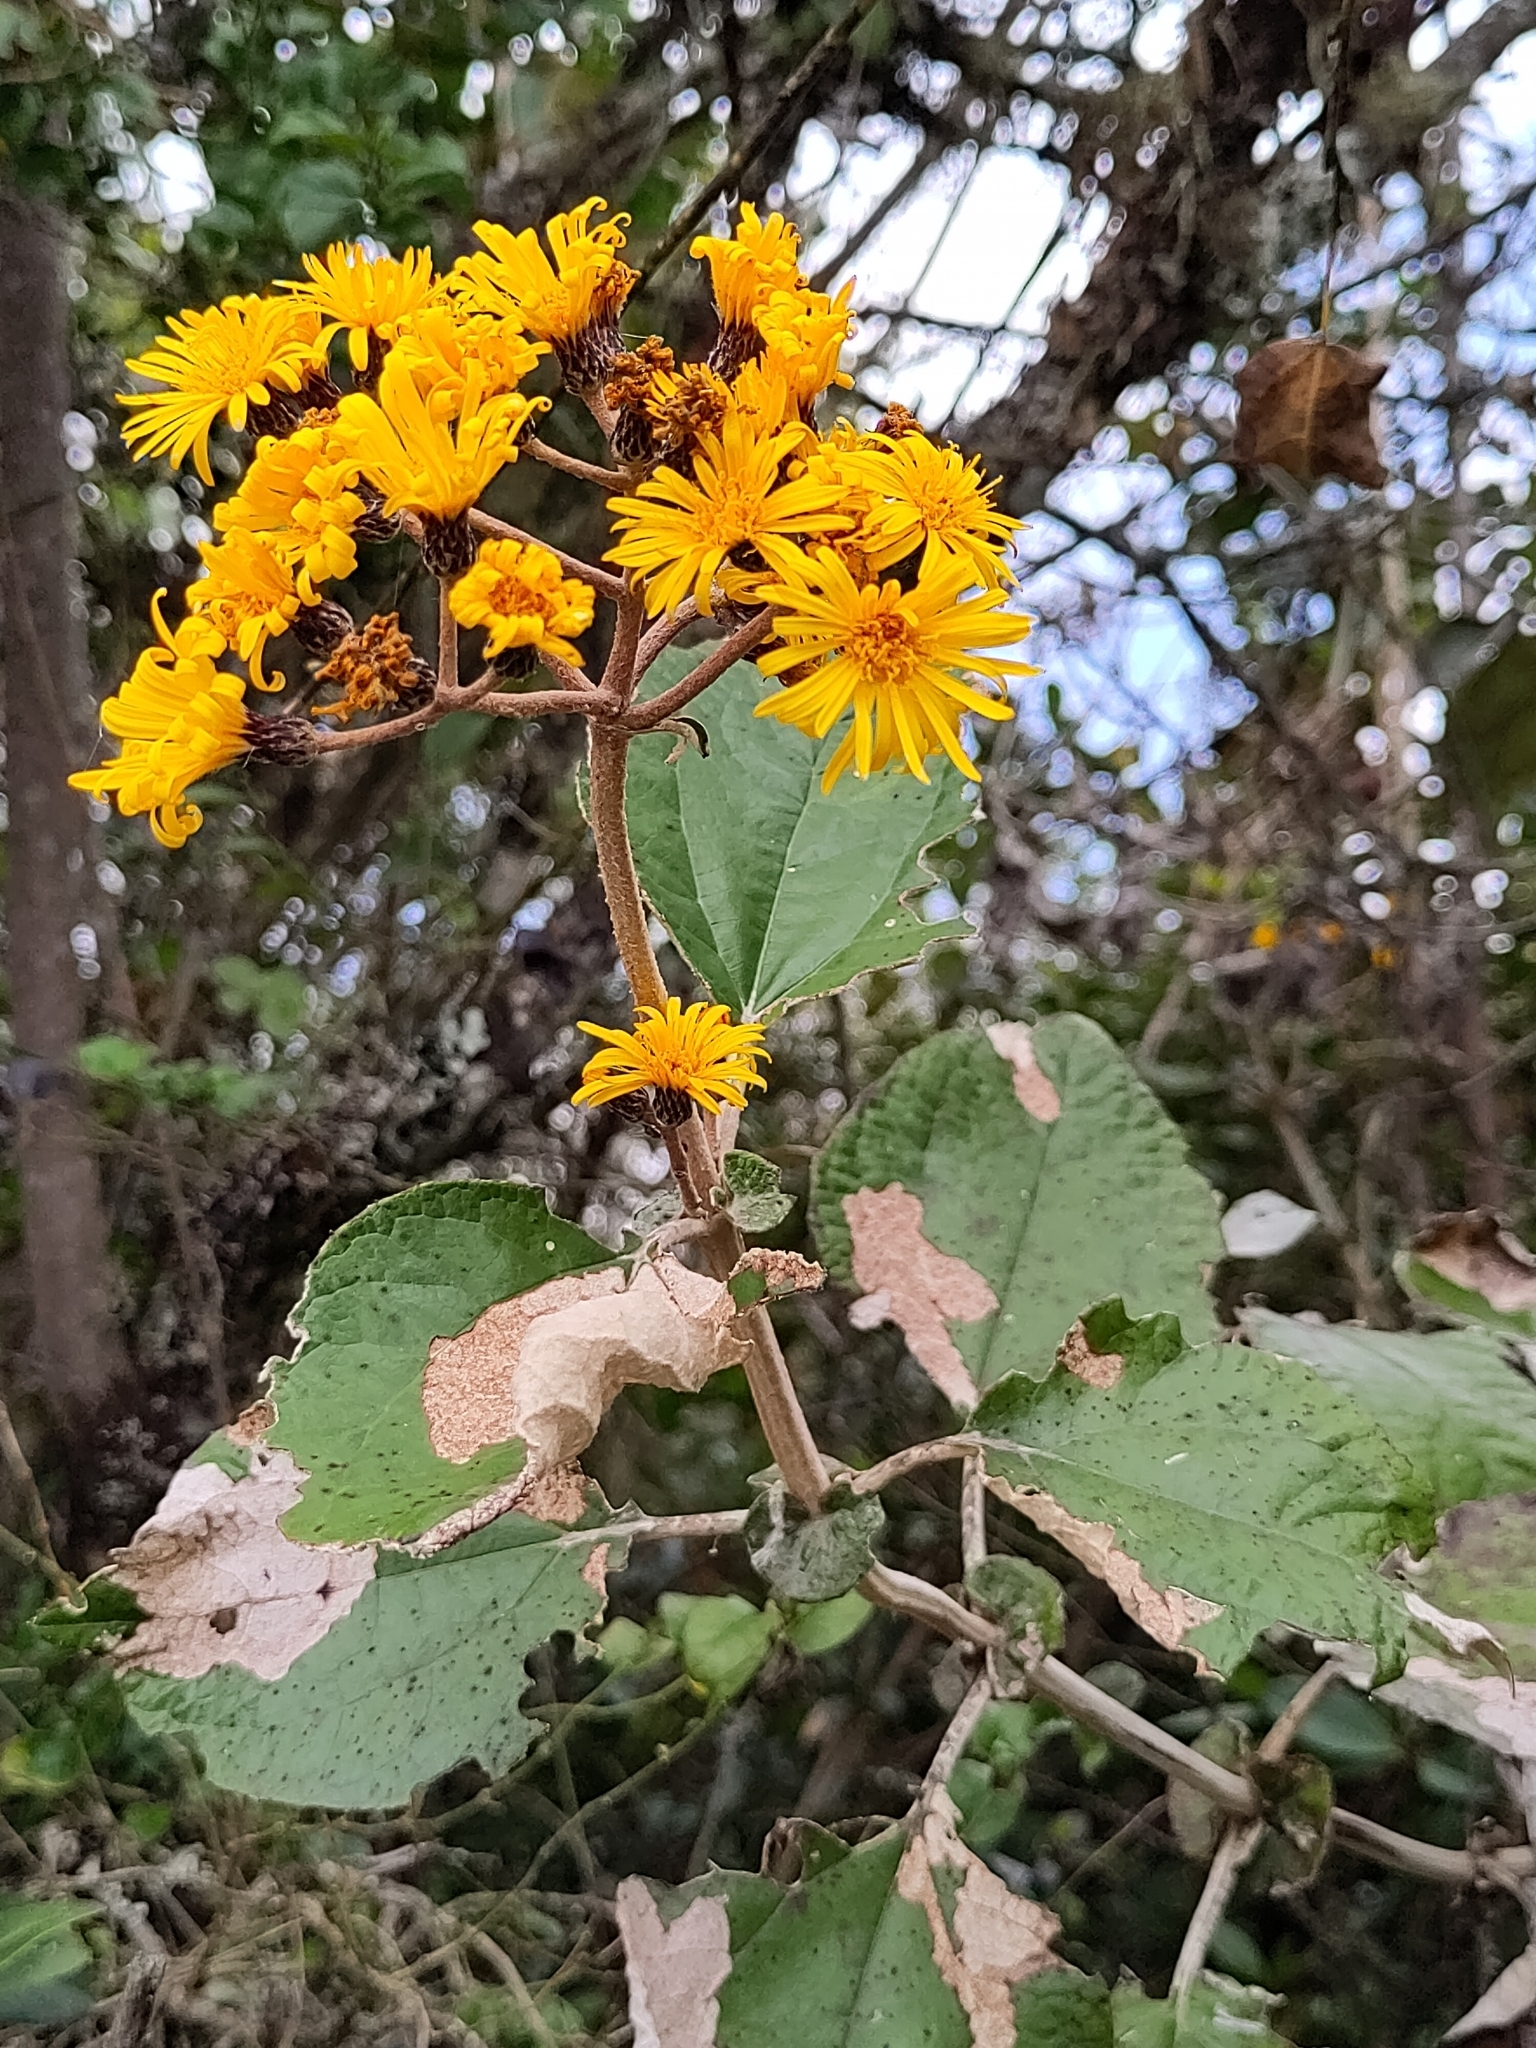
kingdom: Plantae
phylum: Tracheophyta
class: Magnoliopsida
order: Asterales
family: Asteraceae
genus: Liabum
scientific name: Liabum igniarium
